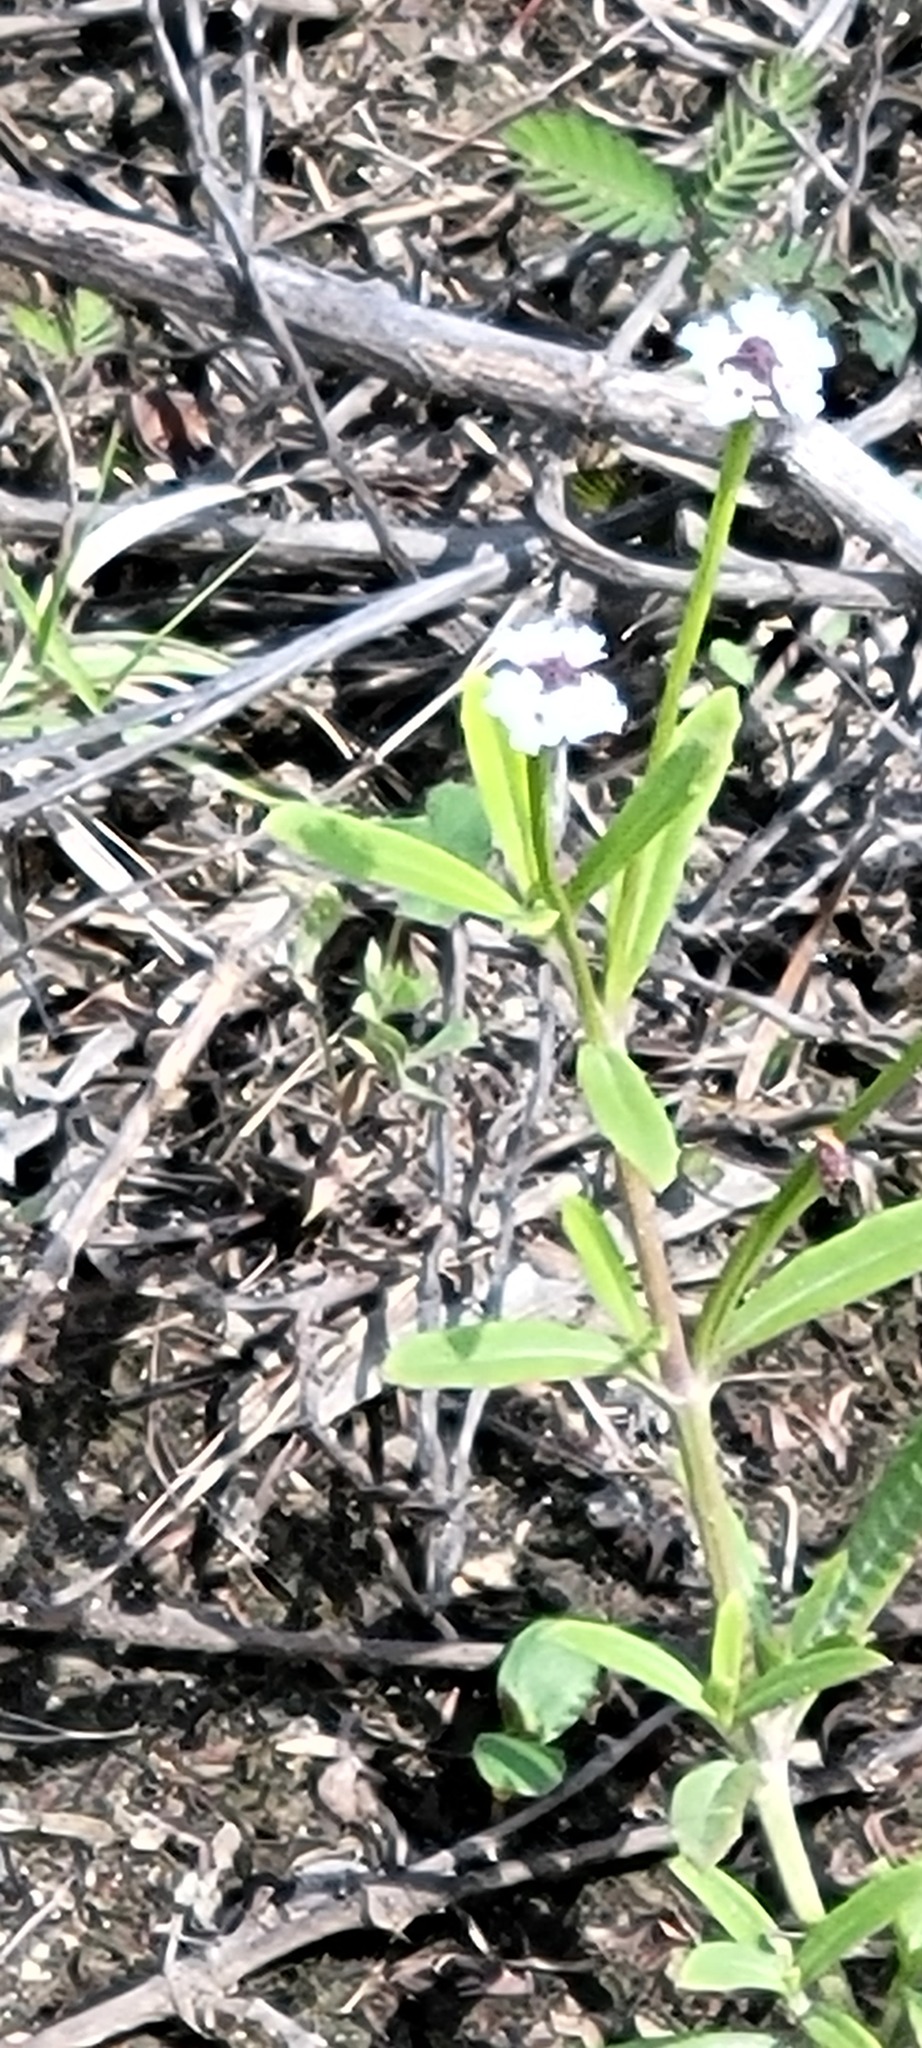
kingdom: Plantae
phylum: Tracheophyta
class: Magnoliopsida
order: Lamiales
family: Verbenaceae
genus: Phyla
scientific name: Phyla lanceolata
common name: Northern fogfruit
